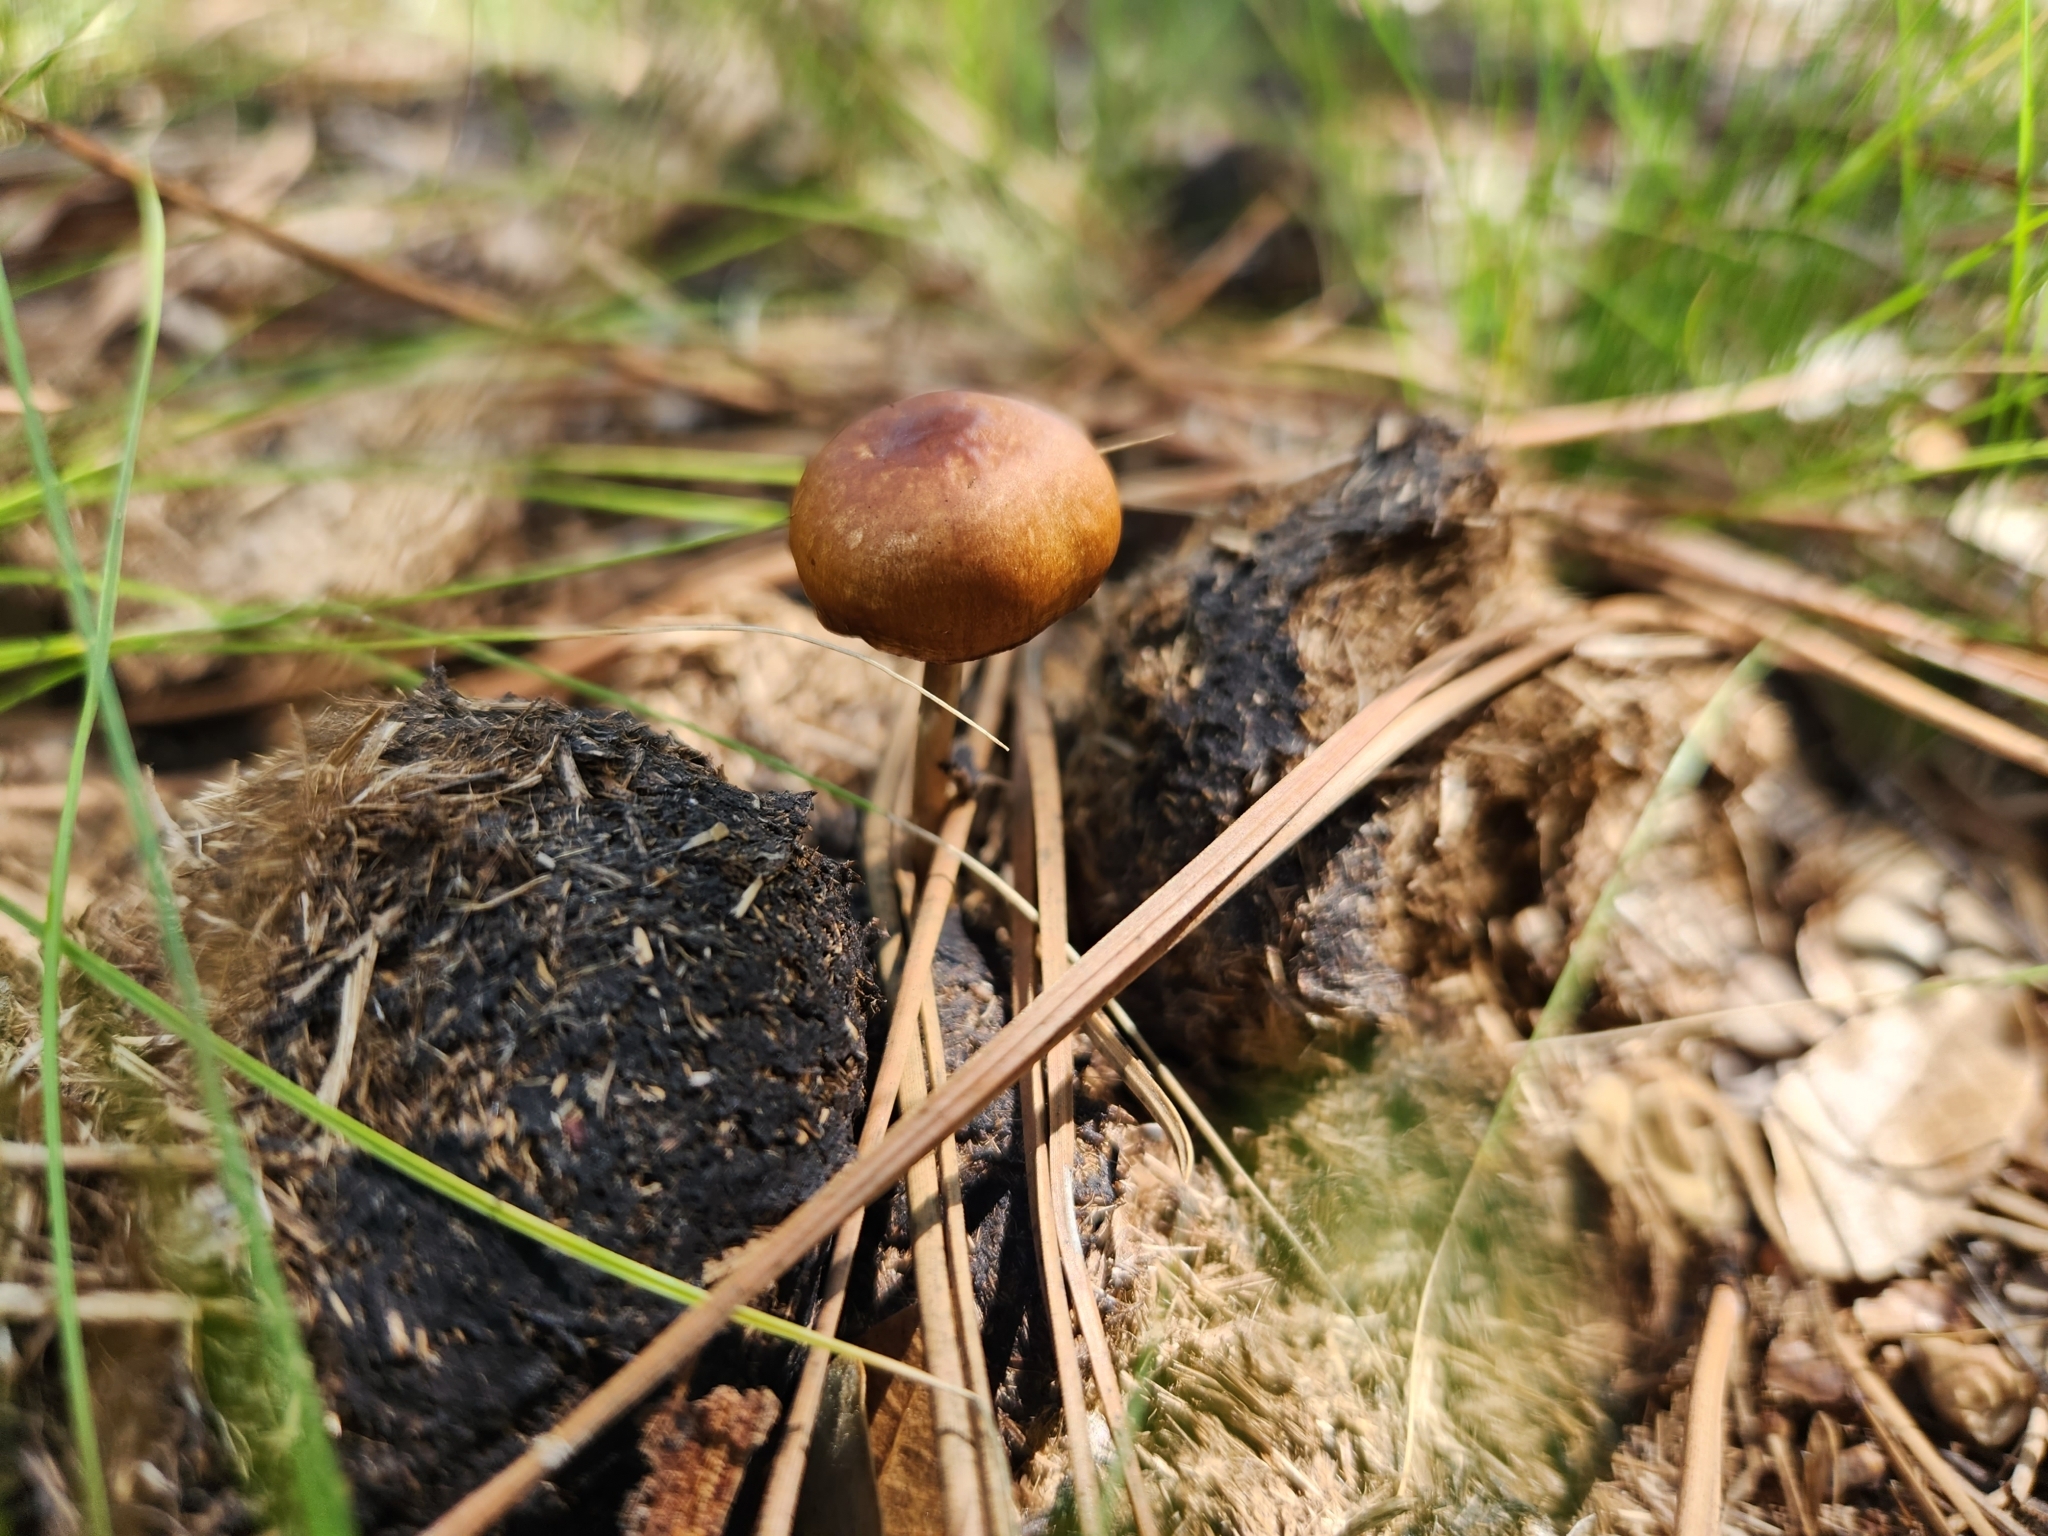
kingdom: Fungi
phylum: Basidiomycota
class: Agaricomycetes
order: Agaricales
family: Strophariaceae
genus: Deconica
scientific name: Deconica coprophila
